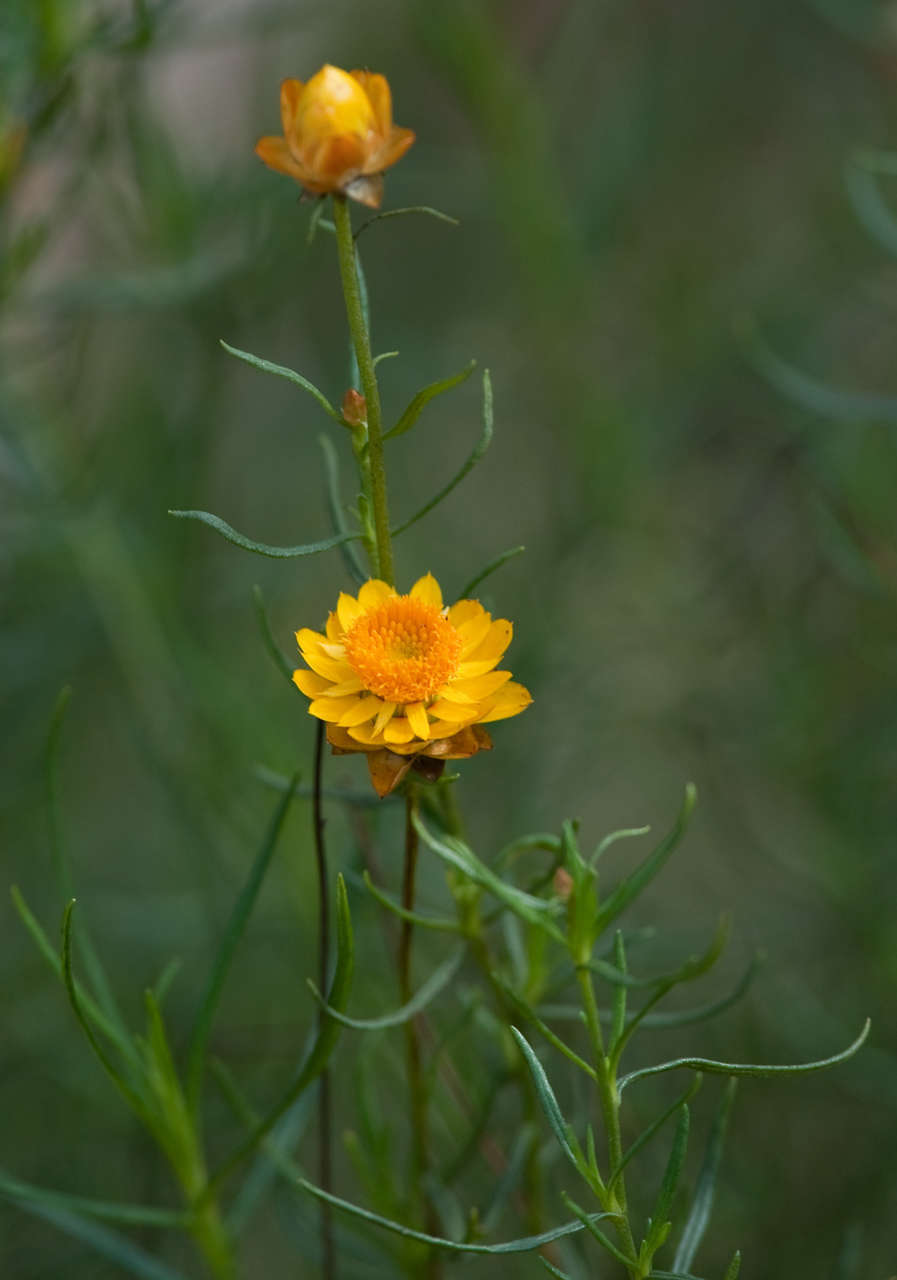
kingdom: Plantae
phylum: Tracheophyta
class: Magnoliopsida
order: Asterales
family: Asteraceae
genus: Xerochrysum
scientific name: Xerochrysum viscosum
